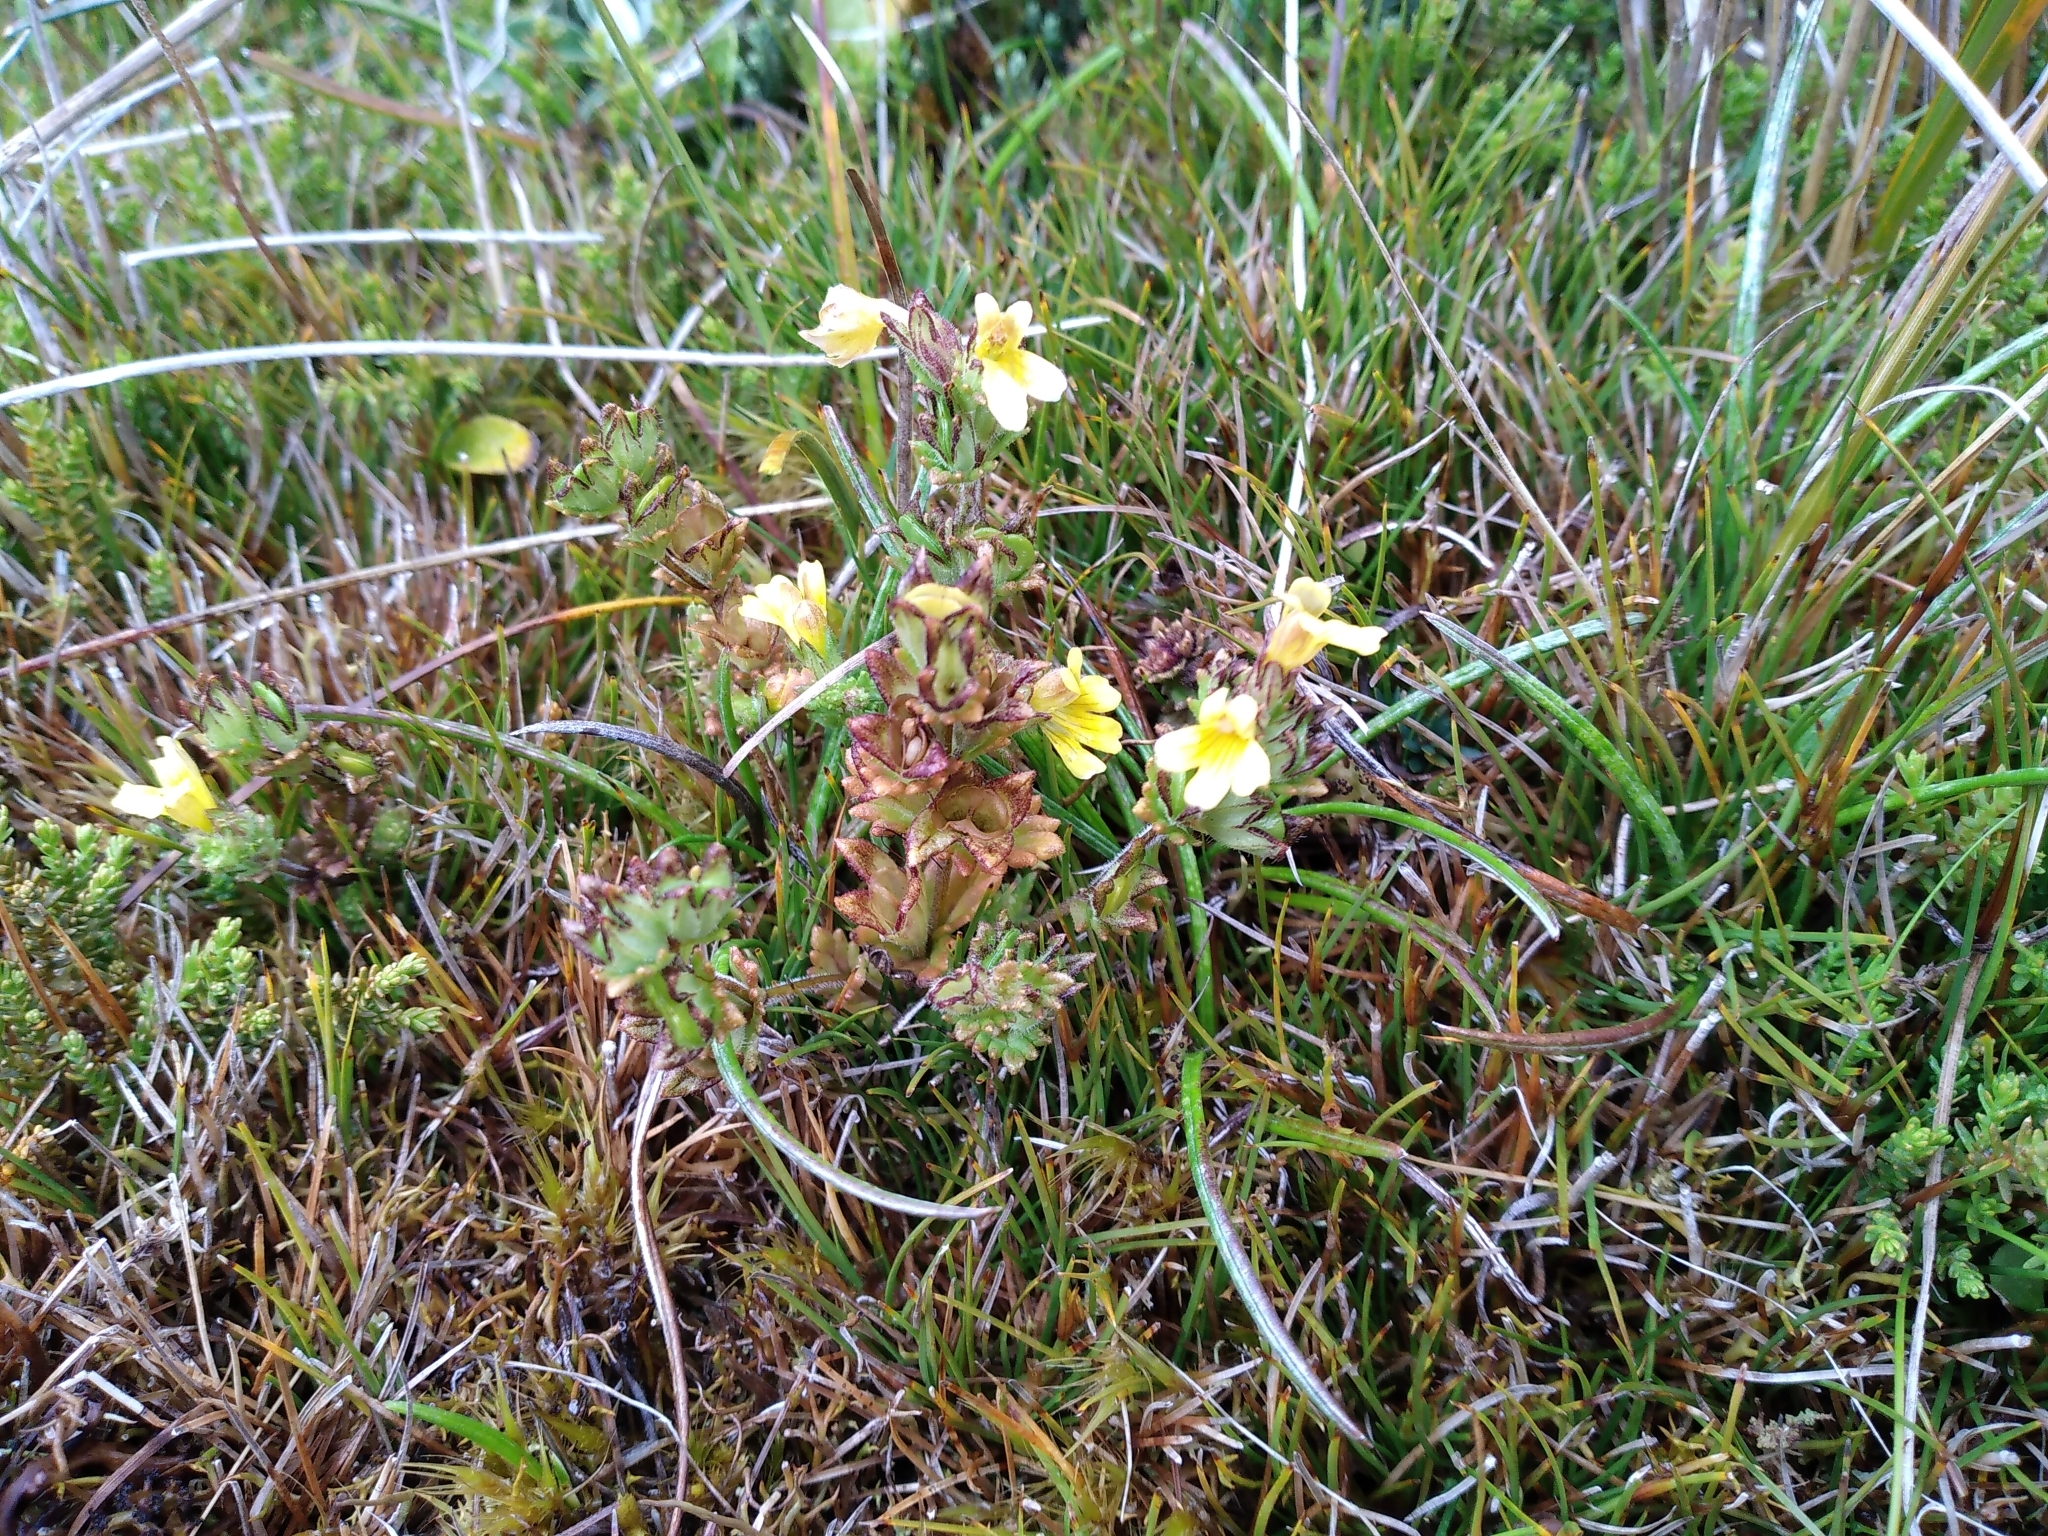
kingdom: Plantae
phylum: Tracheophyta
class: Magnoliopsida
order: Lamiales
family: Orobanchaceae
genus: Euphrasia
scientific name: Euphrasia cockayneana
